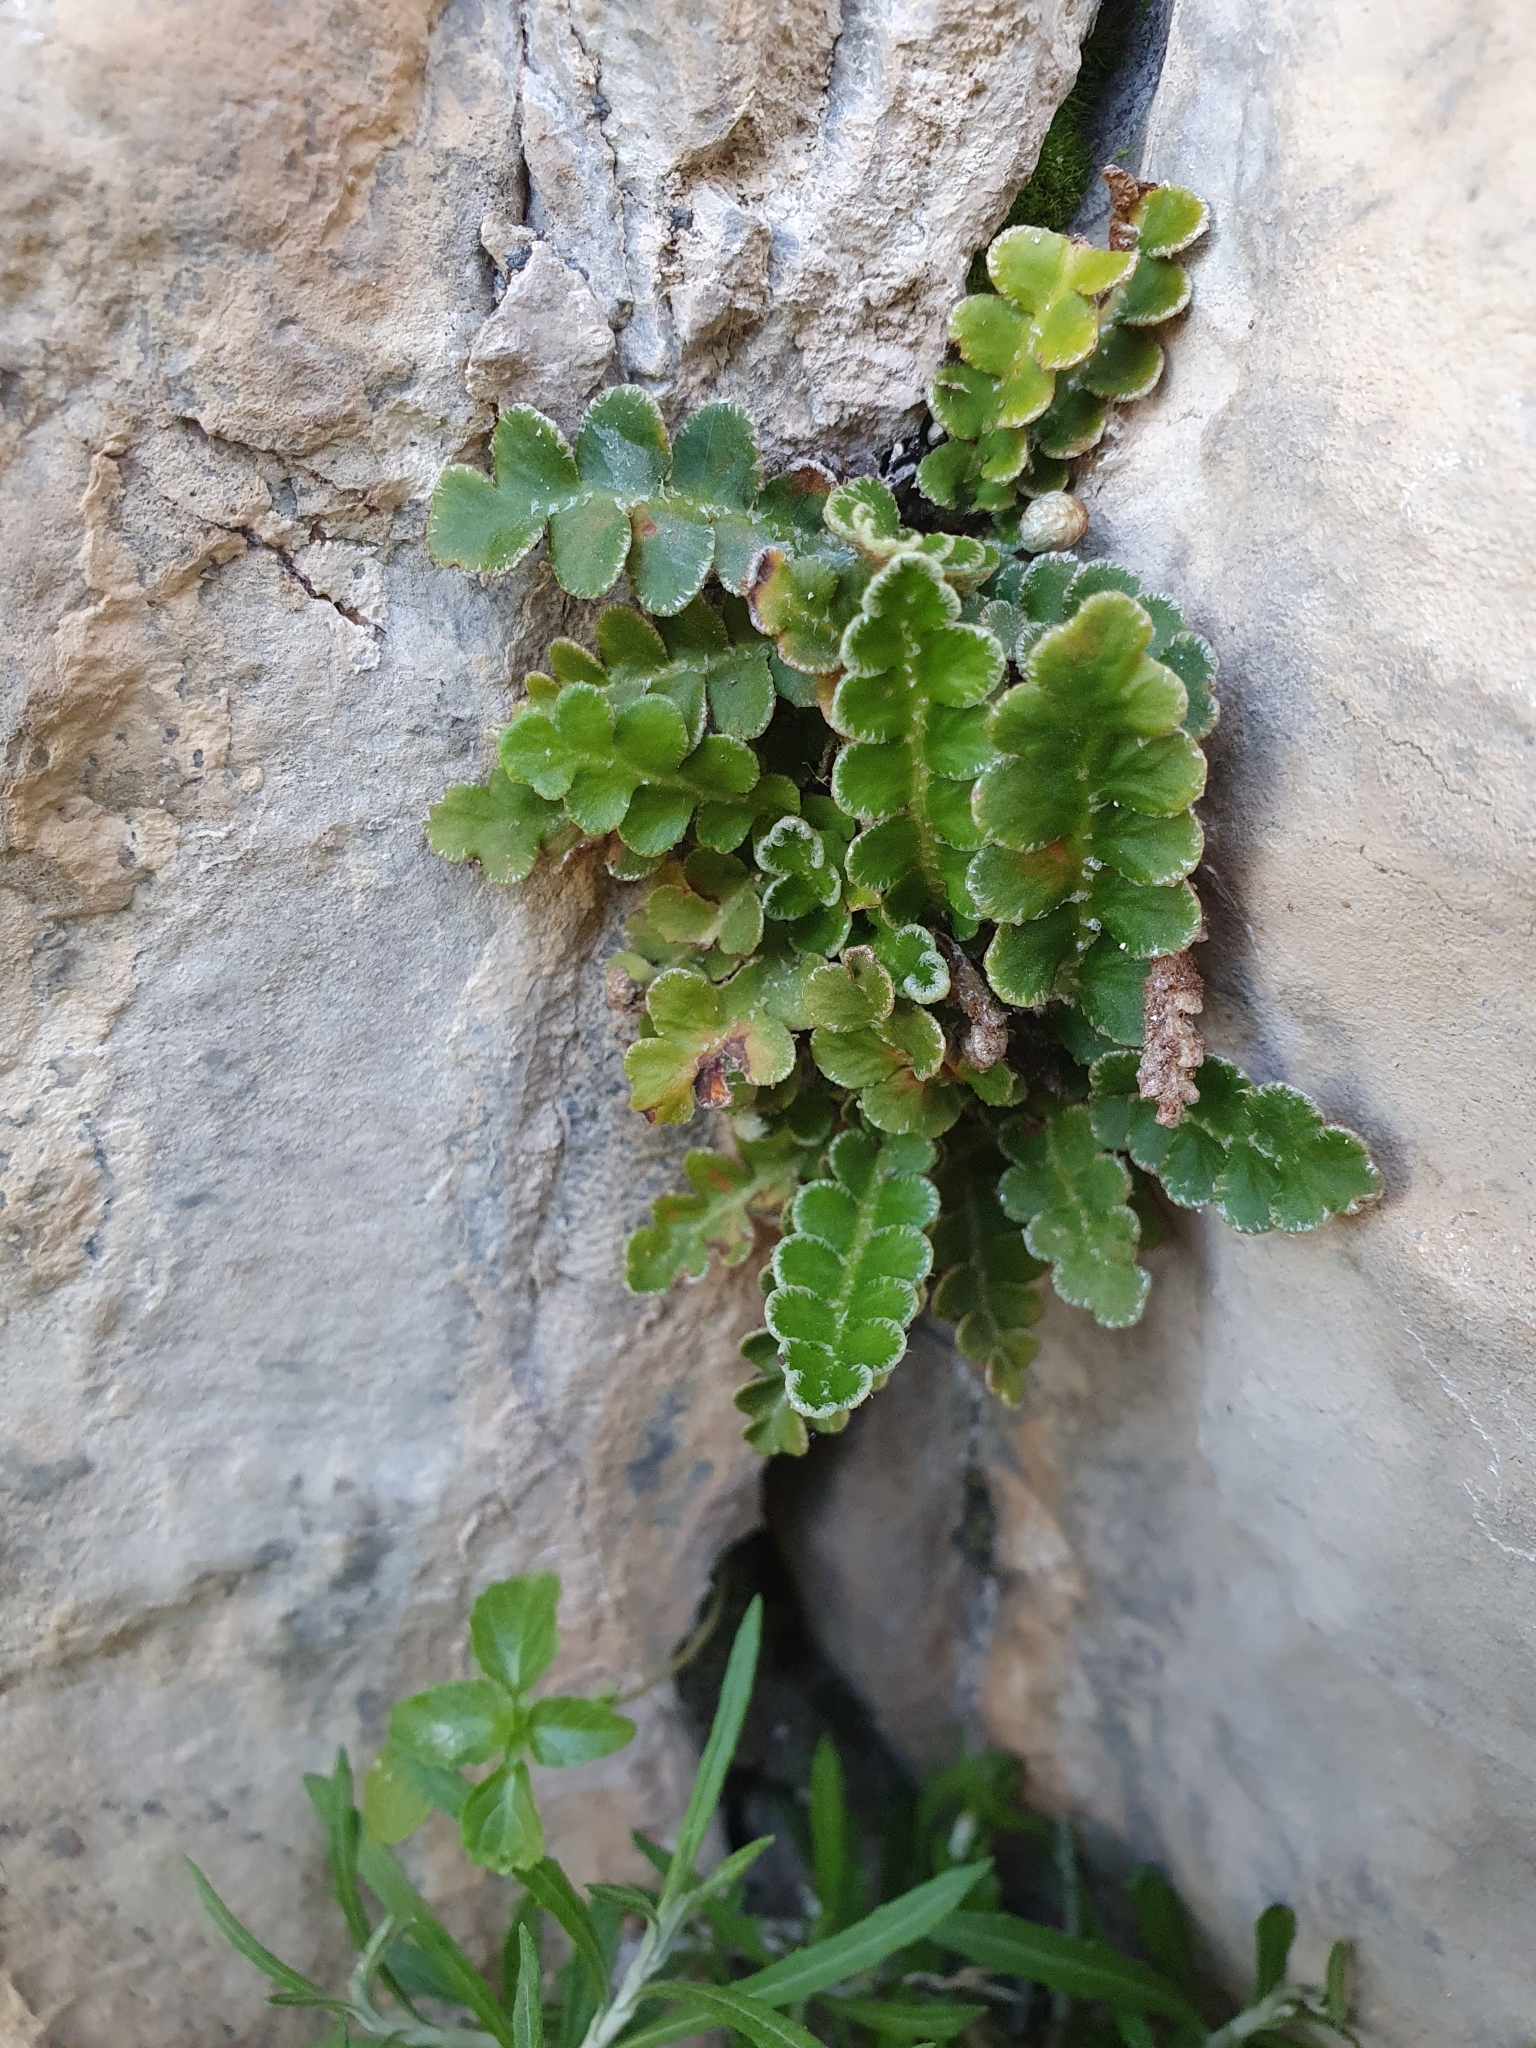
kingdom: Plantae
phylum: Tracheophyta
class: Polypodiopsida
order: Polypodiales
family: Aspleniaceae
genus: Asplenium
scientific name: Asplenium ceterach
